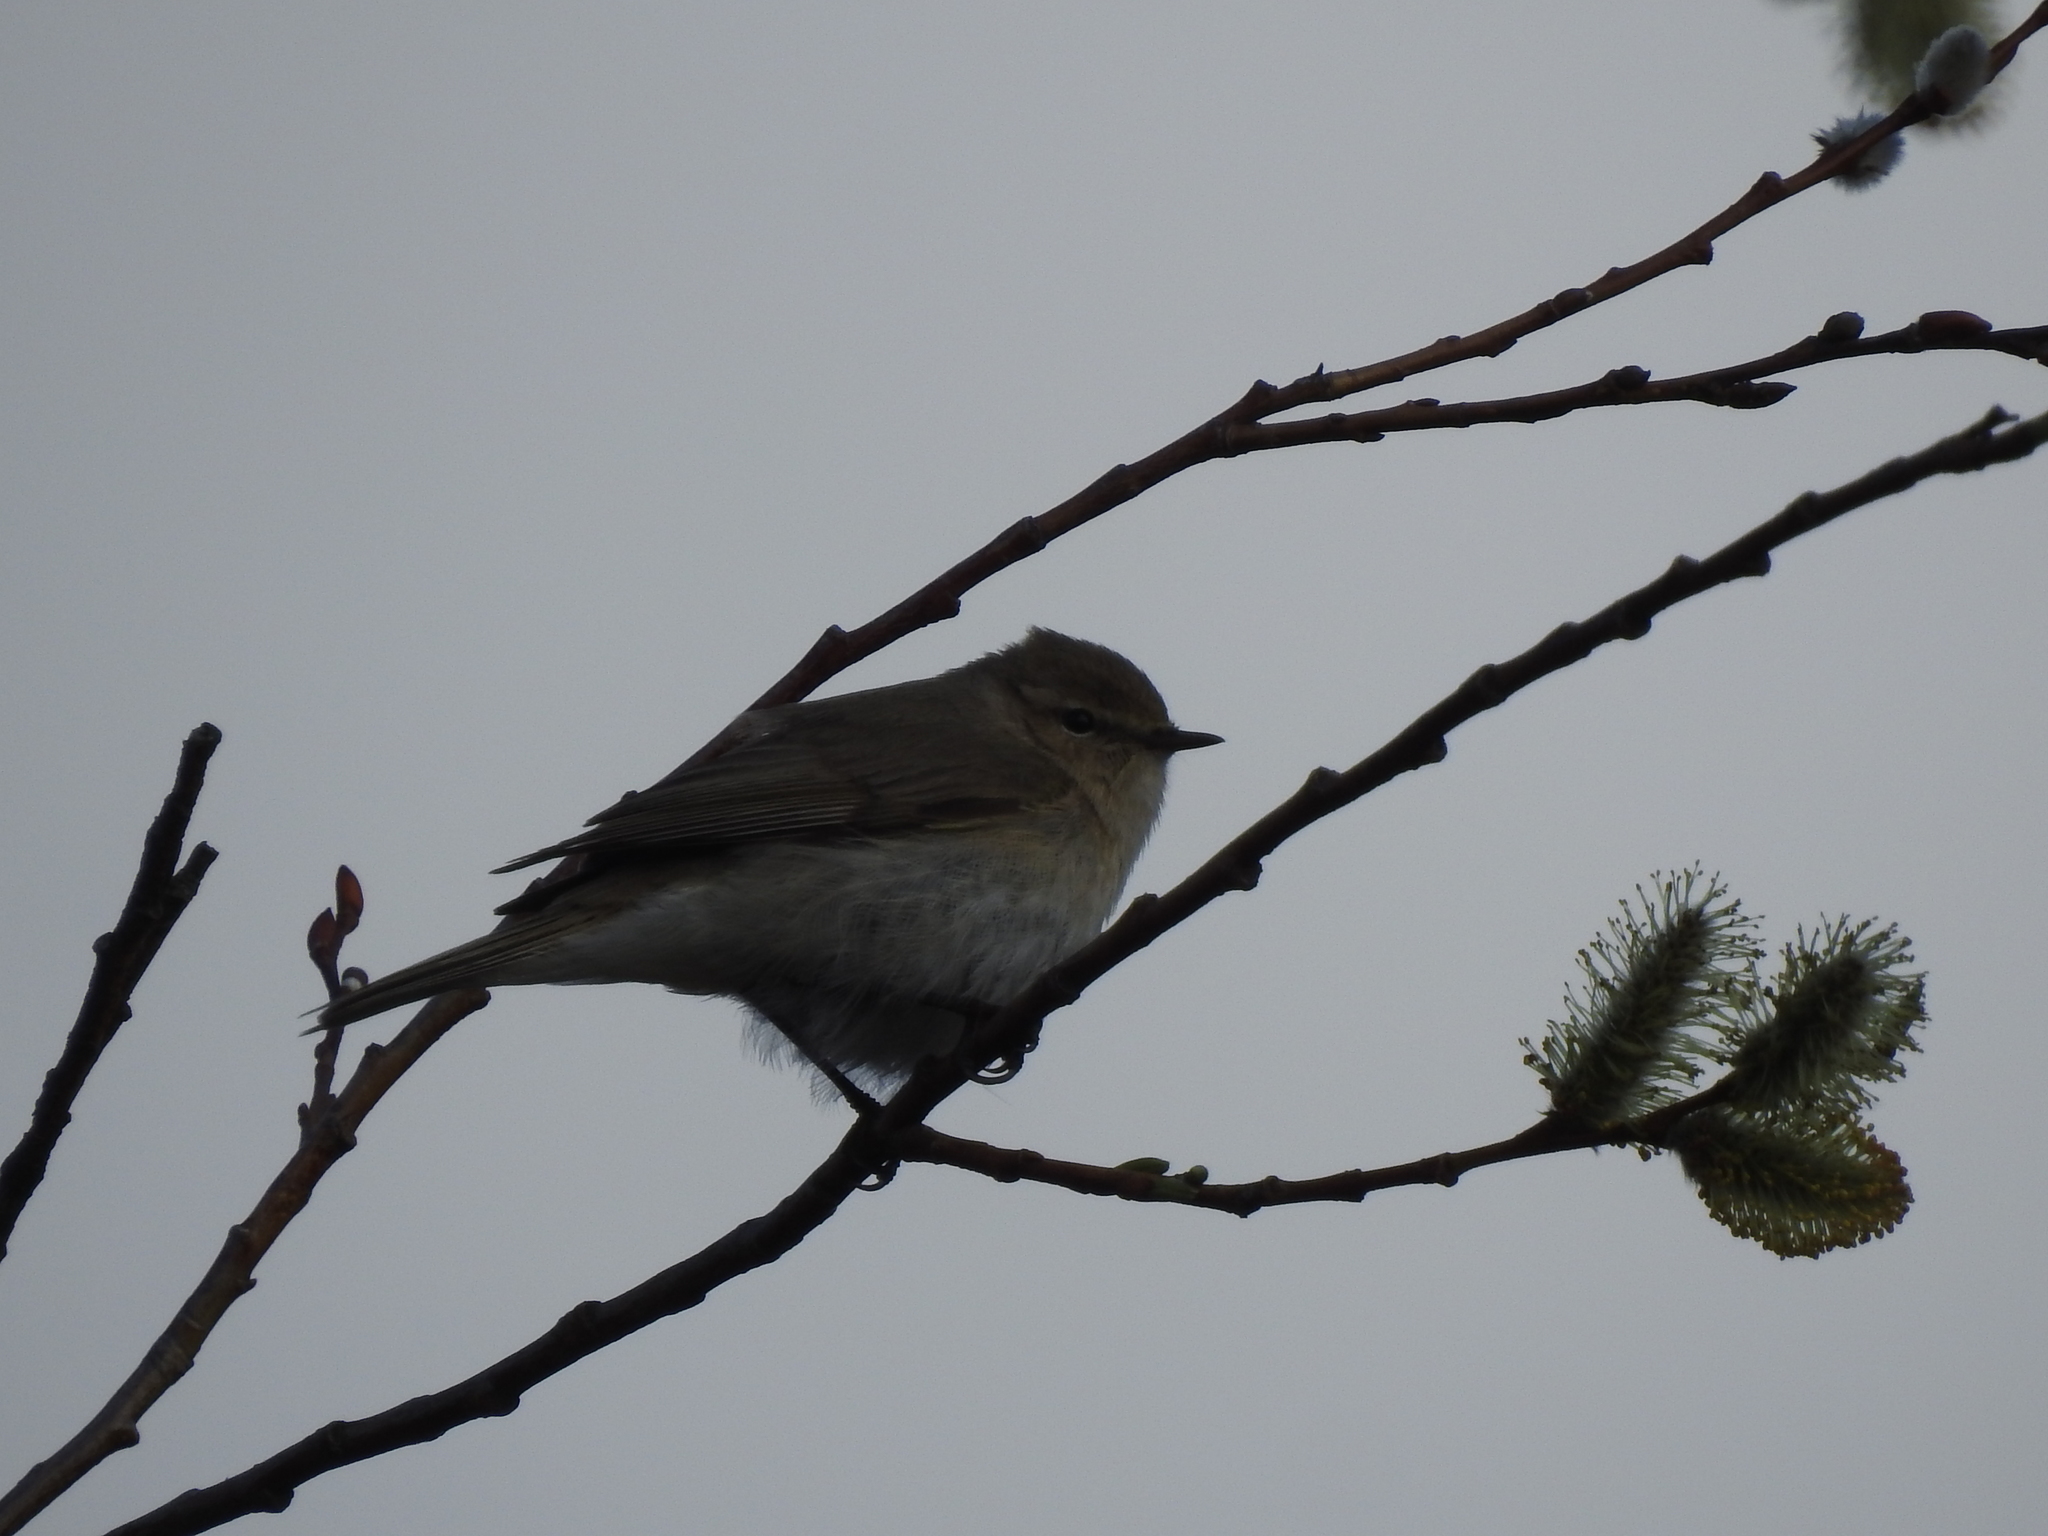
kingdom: Animalia
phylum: Chordata
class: Aves
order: Passeriformes
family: Phylloscopidae
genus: Phylloscopus
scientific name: Phylloscopus collybita
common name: Common chiffchaff
